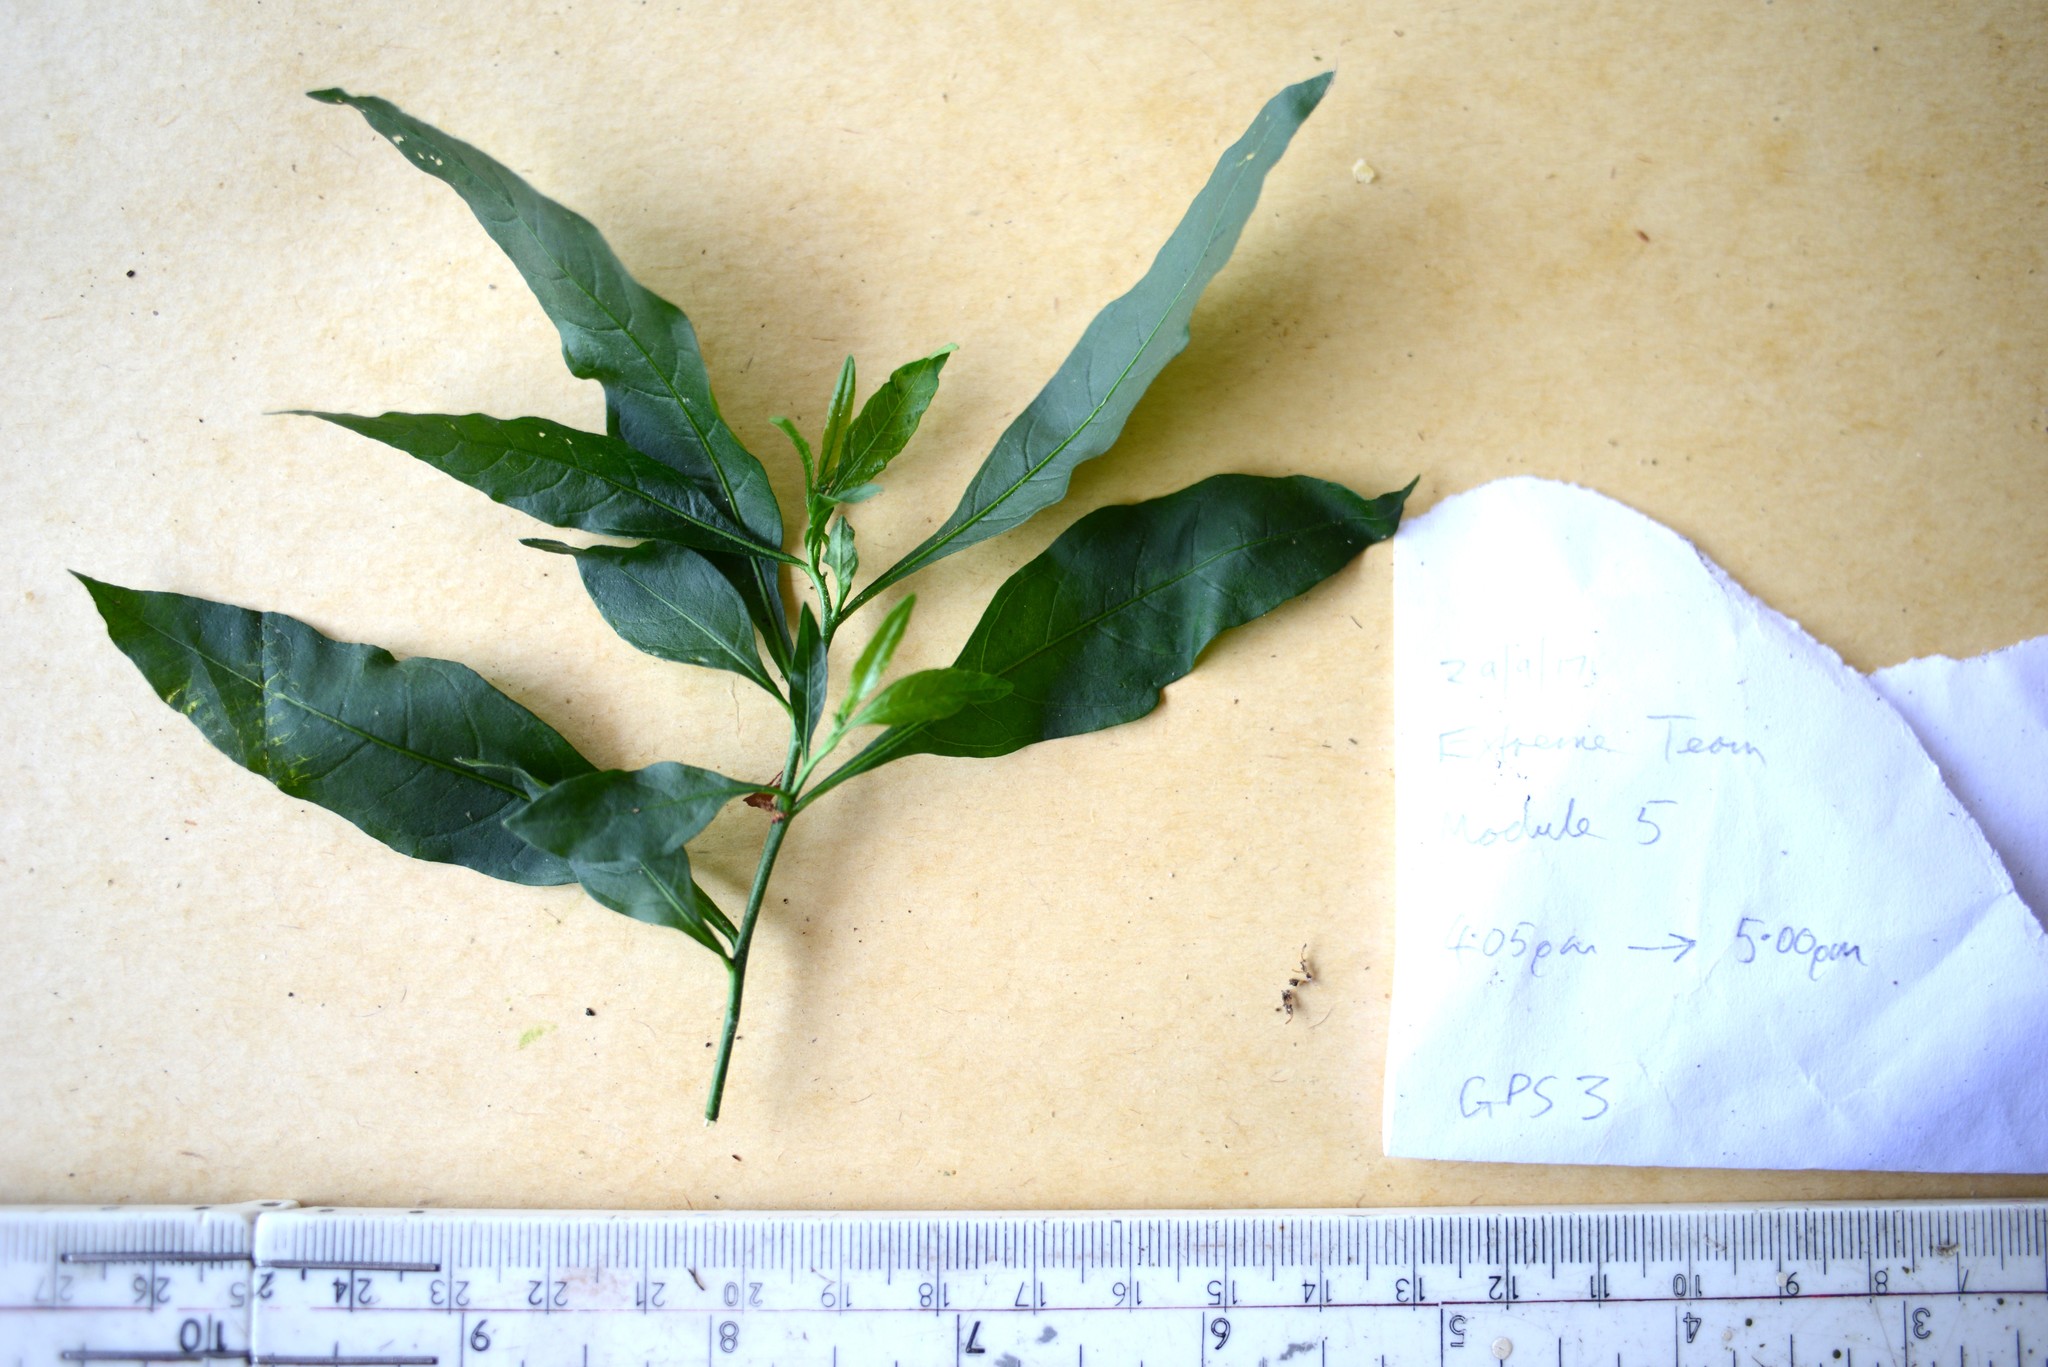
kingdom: Plantae
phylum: Tracheophyta
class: Magnoliopsida
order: Solanales
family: Solanaceae
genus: Solanum
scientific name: Solanum pseudocapsicum
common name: Jerusalem cherry
